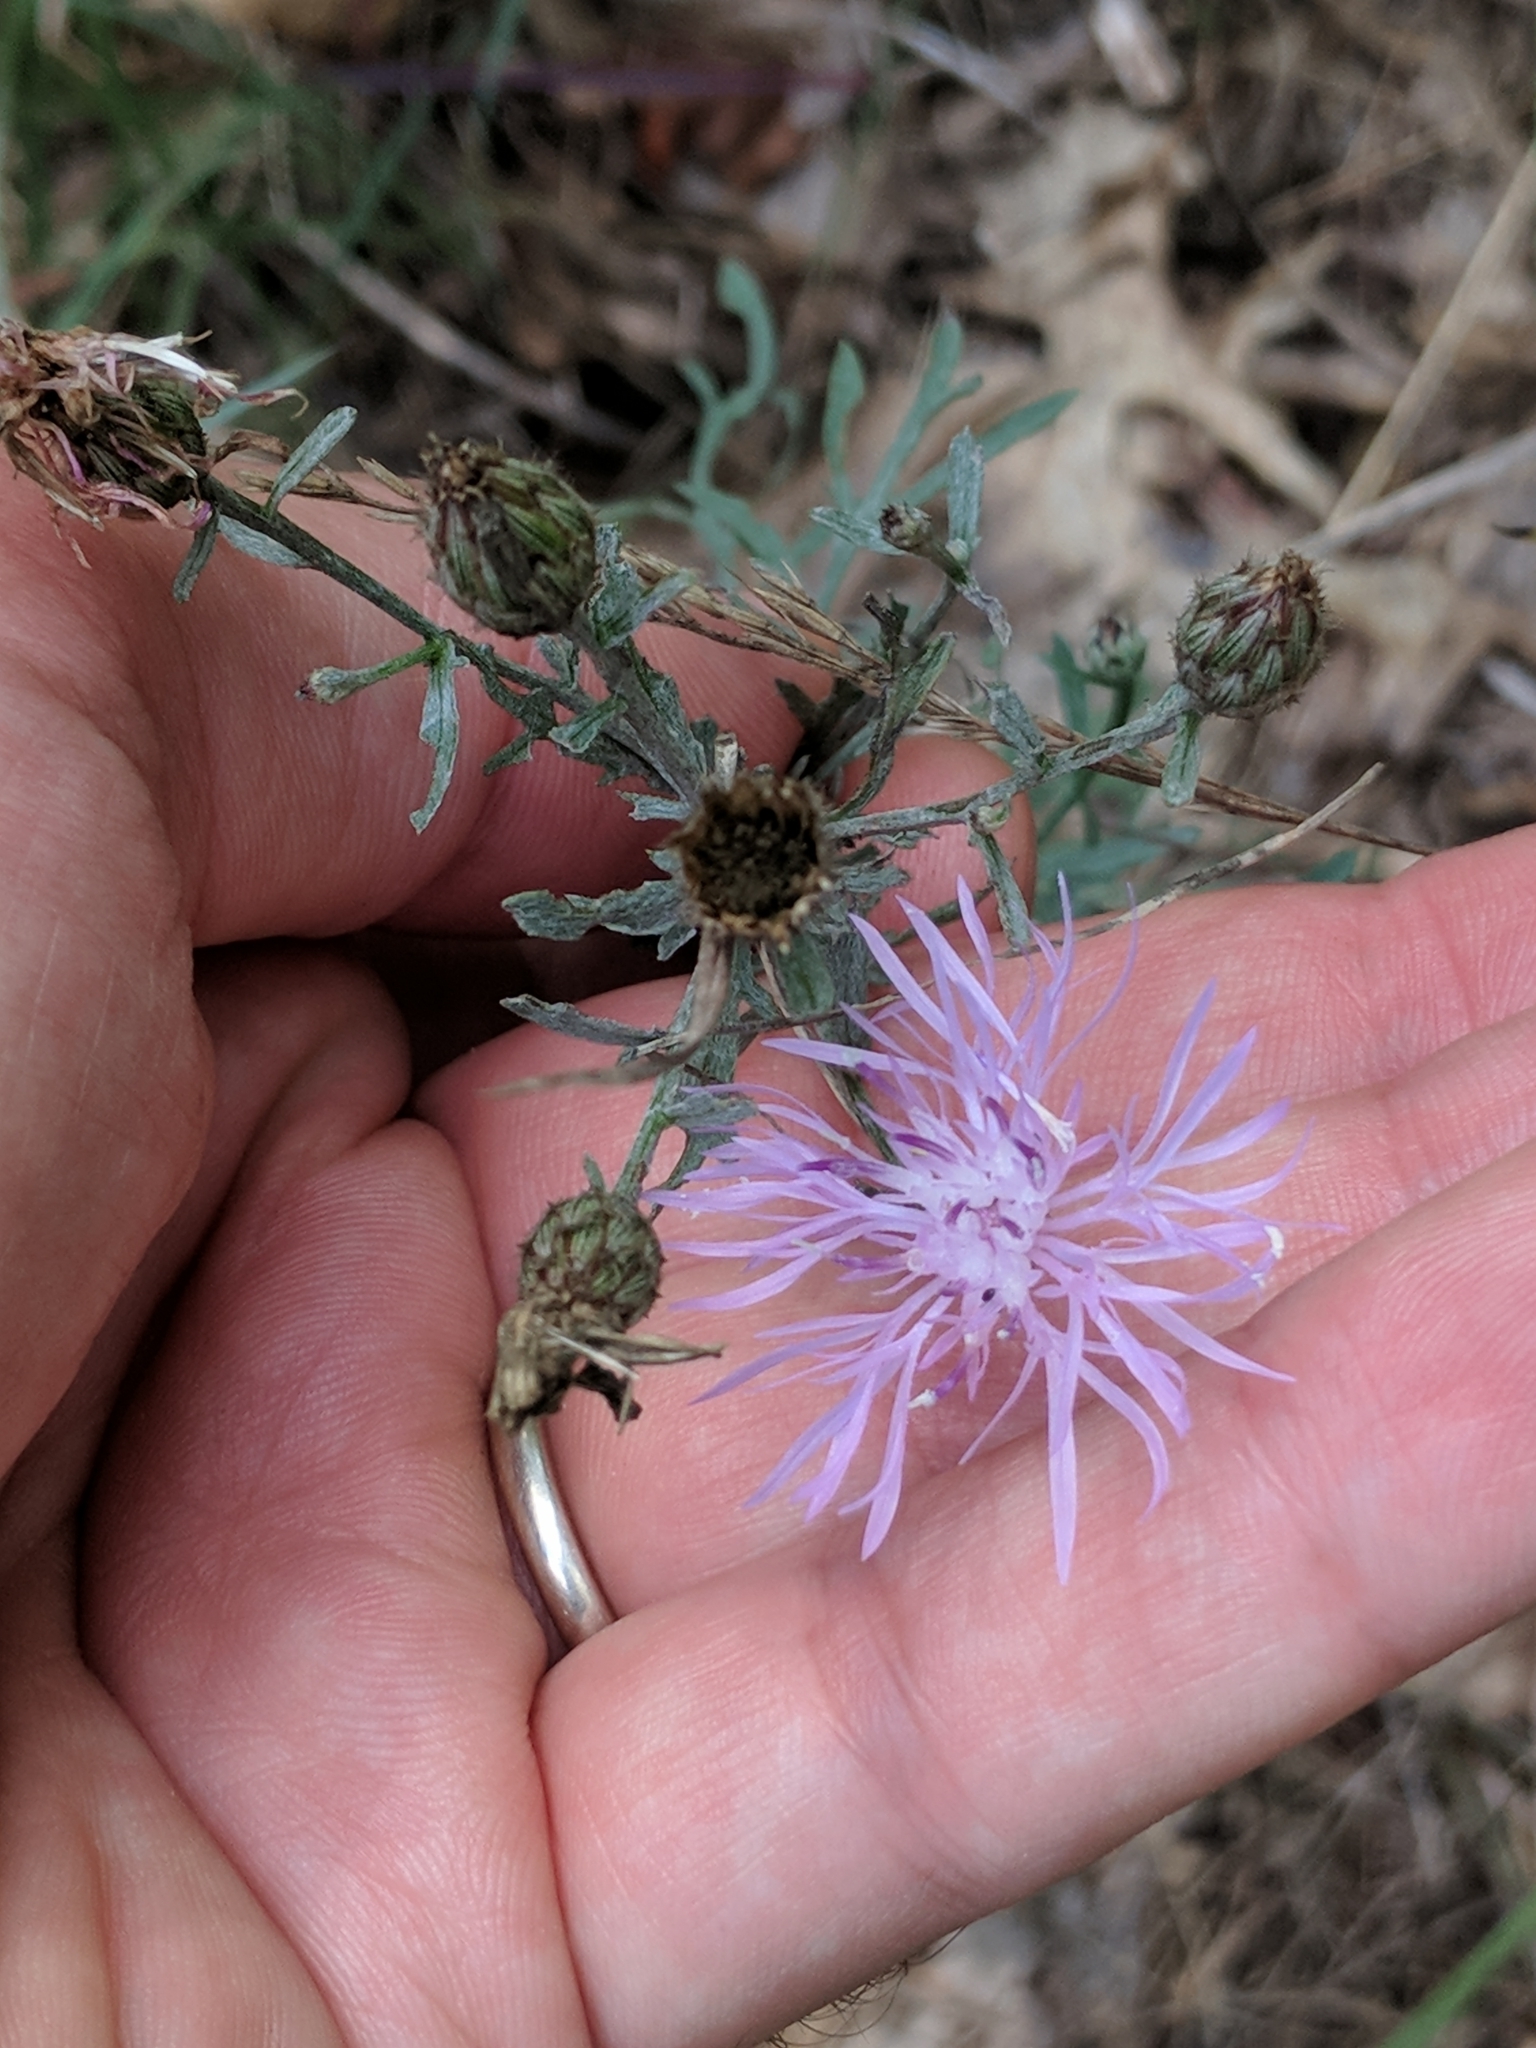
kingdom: Plantae
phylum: Tracheophyta
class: Magnoliopsida
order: Asterales
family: Asteraceae
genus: Centaurea
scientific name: Centaurea stoebe
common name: Spotted knapweed
